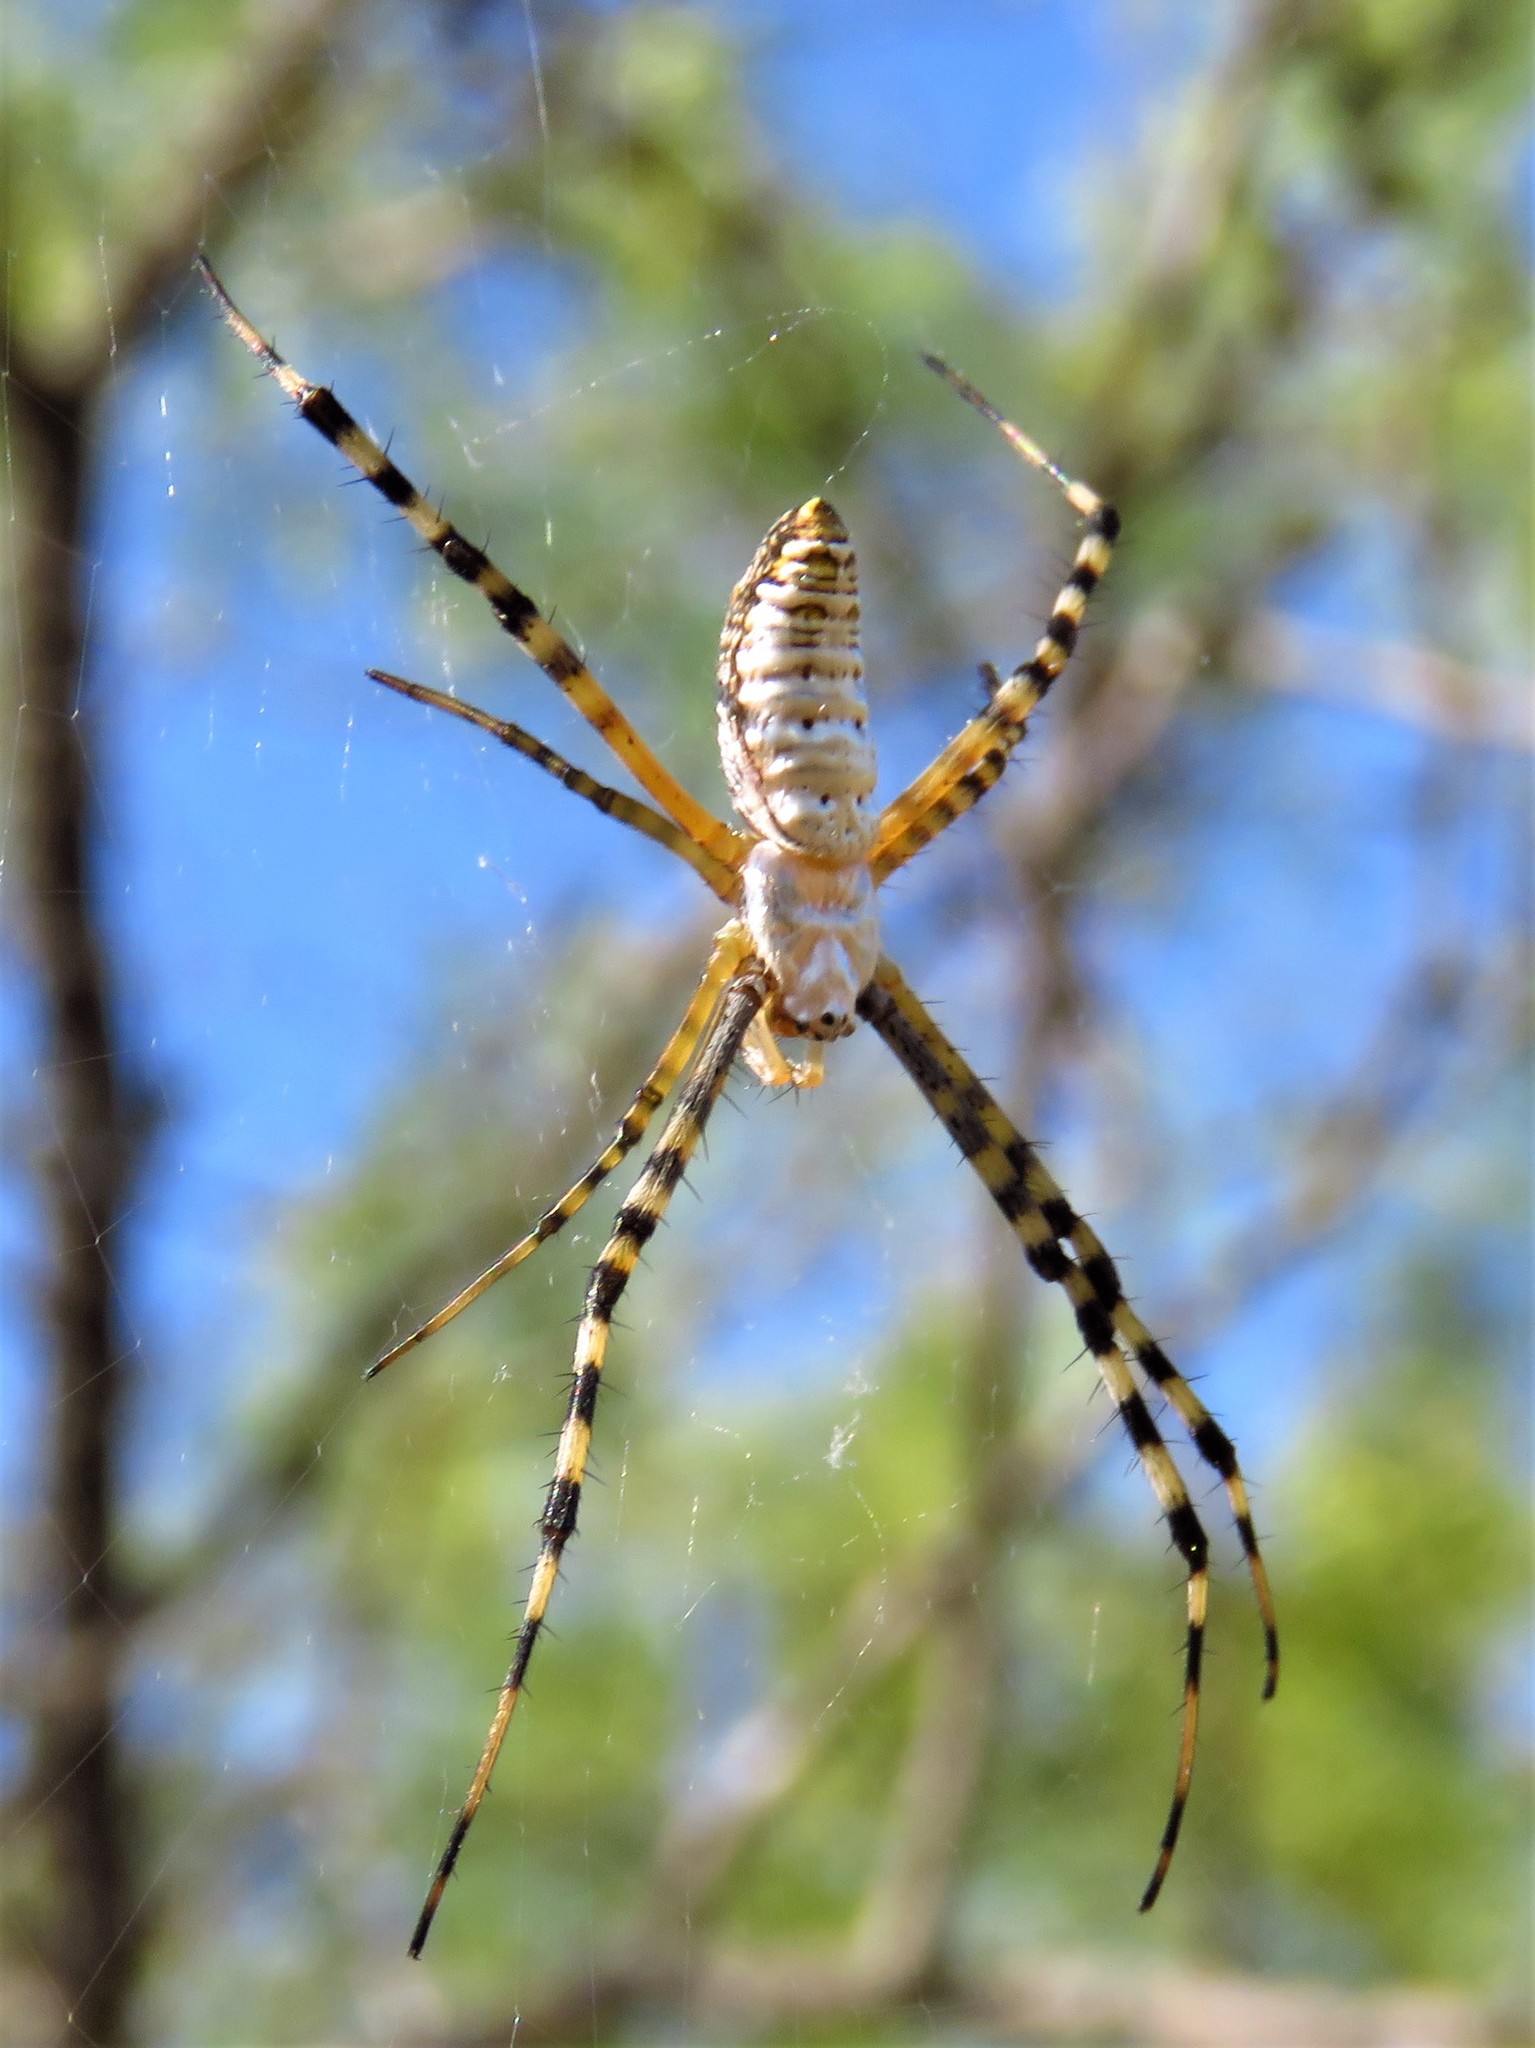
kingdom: Animalia
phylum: Arthropoda
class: Arachnida
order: Araneae
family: Araneidae
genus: Argiope
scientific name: Argiope trifasciata
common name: Banded garden spider
